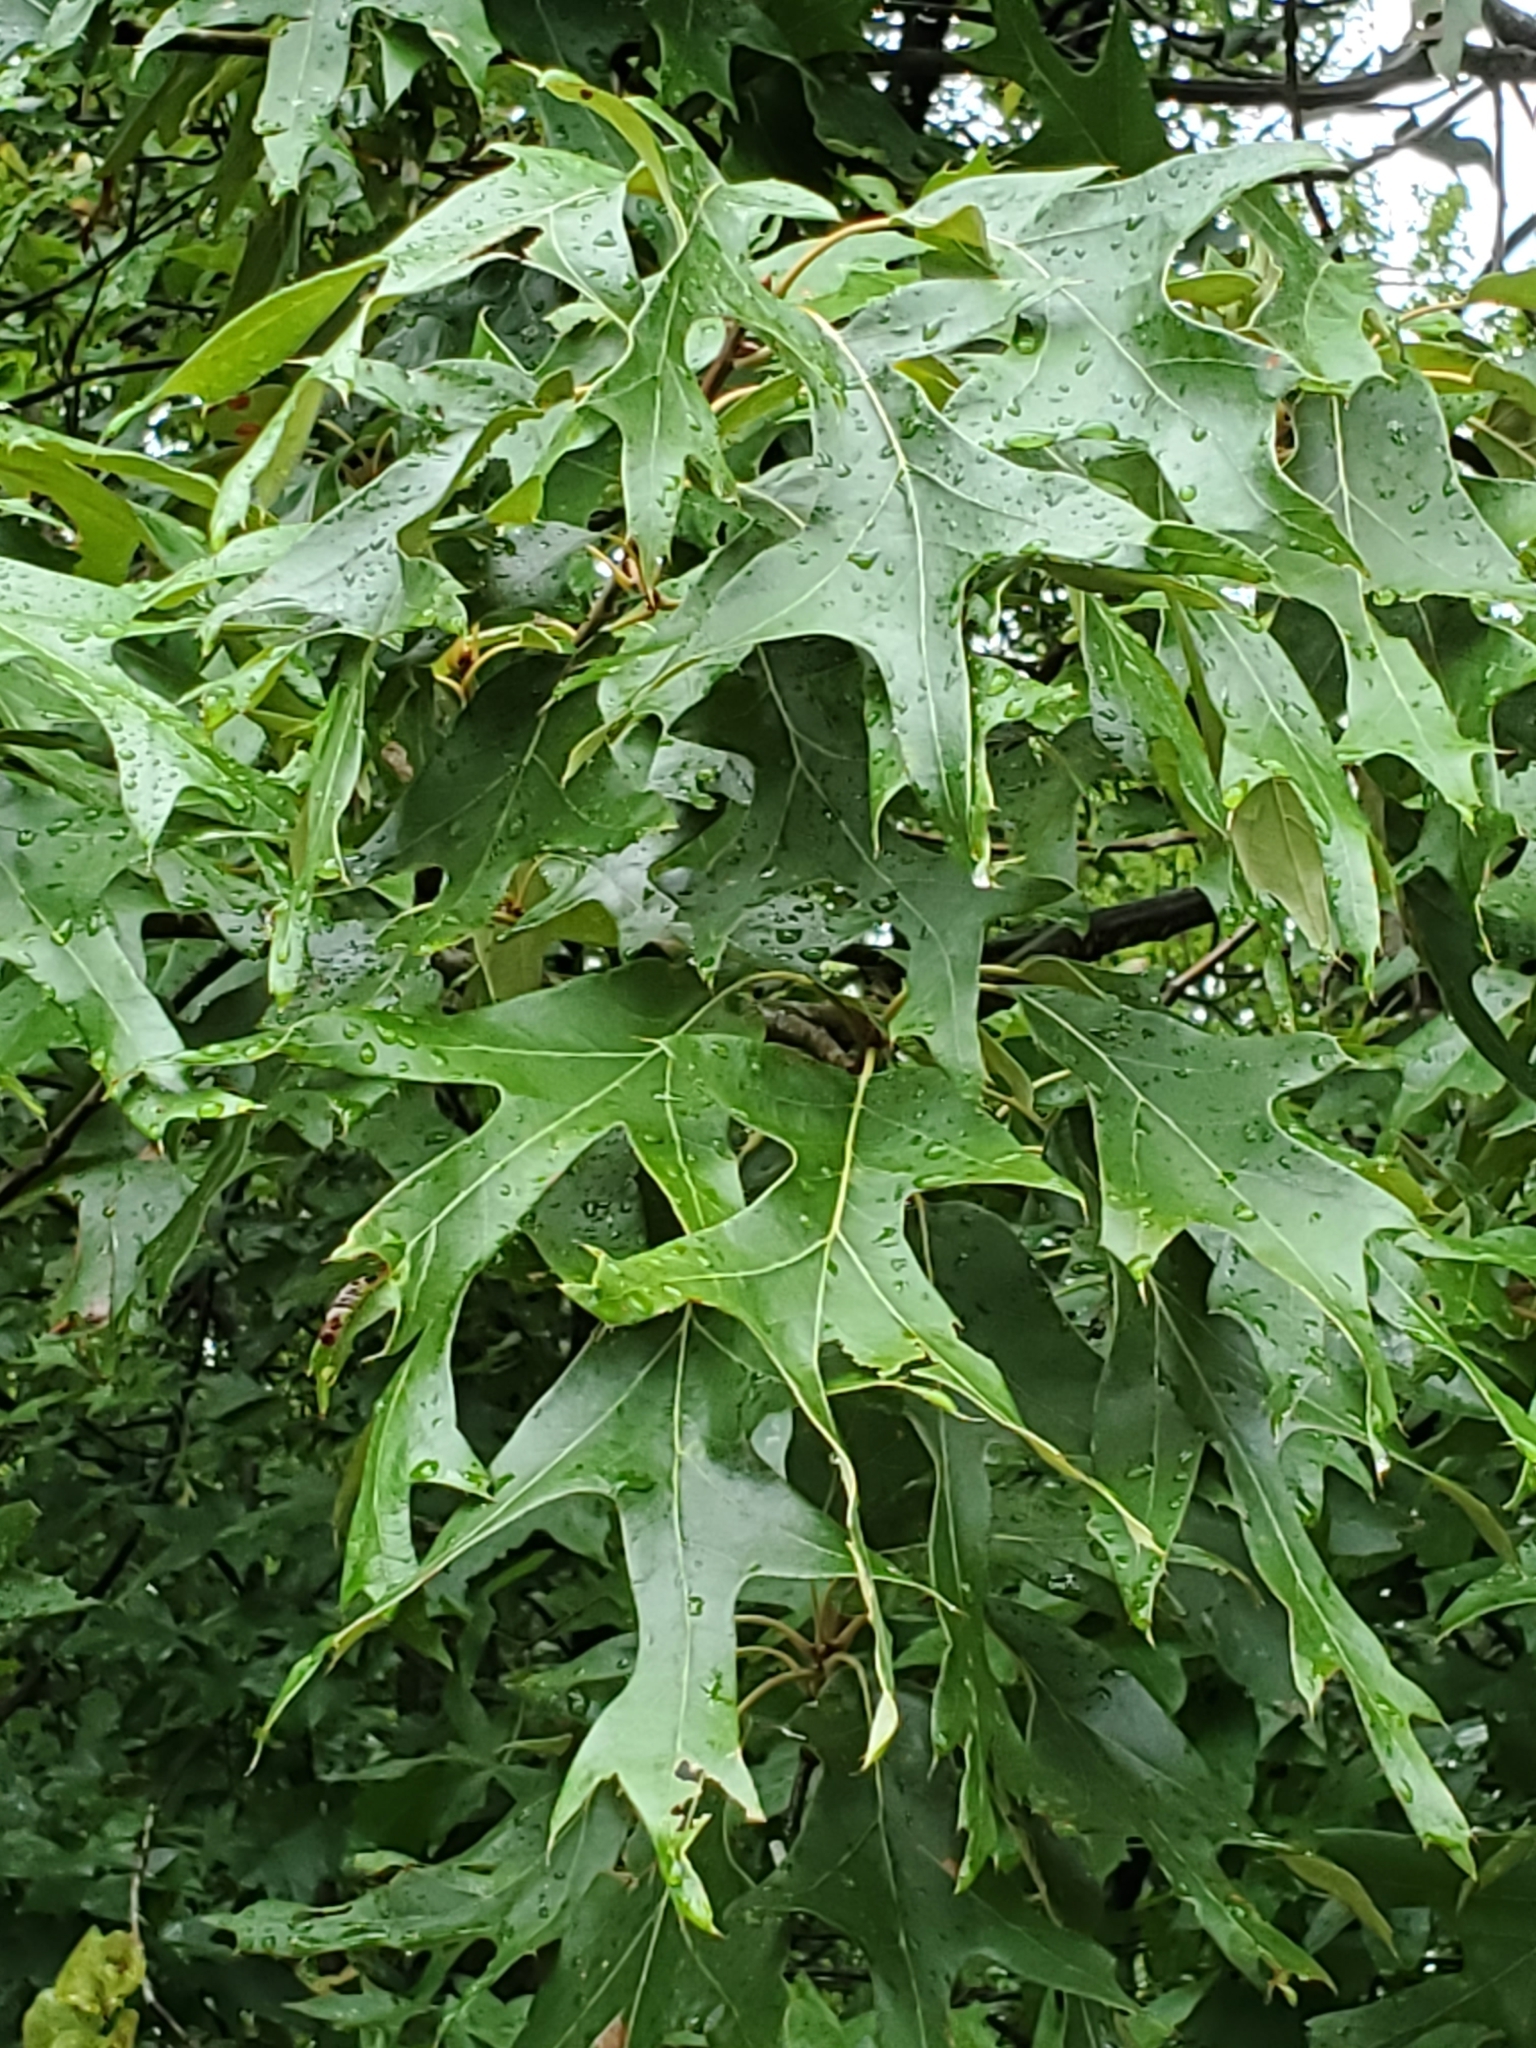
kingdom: Plantae
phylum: Tracheophyta
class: Magnoliopsida
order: Fagales
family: Fagaceae
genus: Quercus
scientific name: Quercus falcata
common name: Southern red oak
